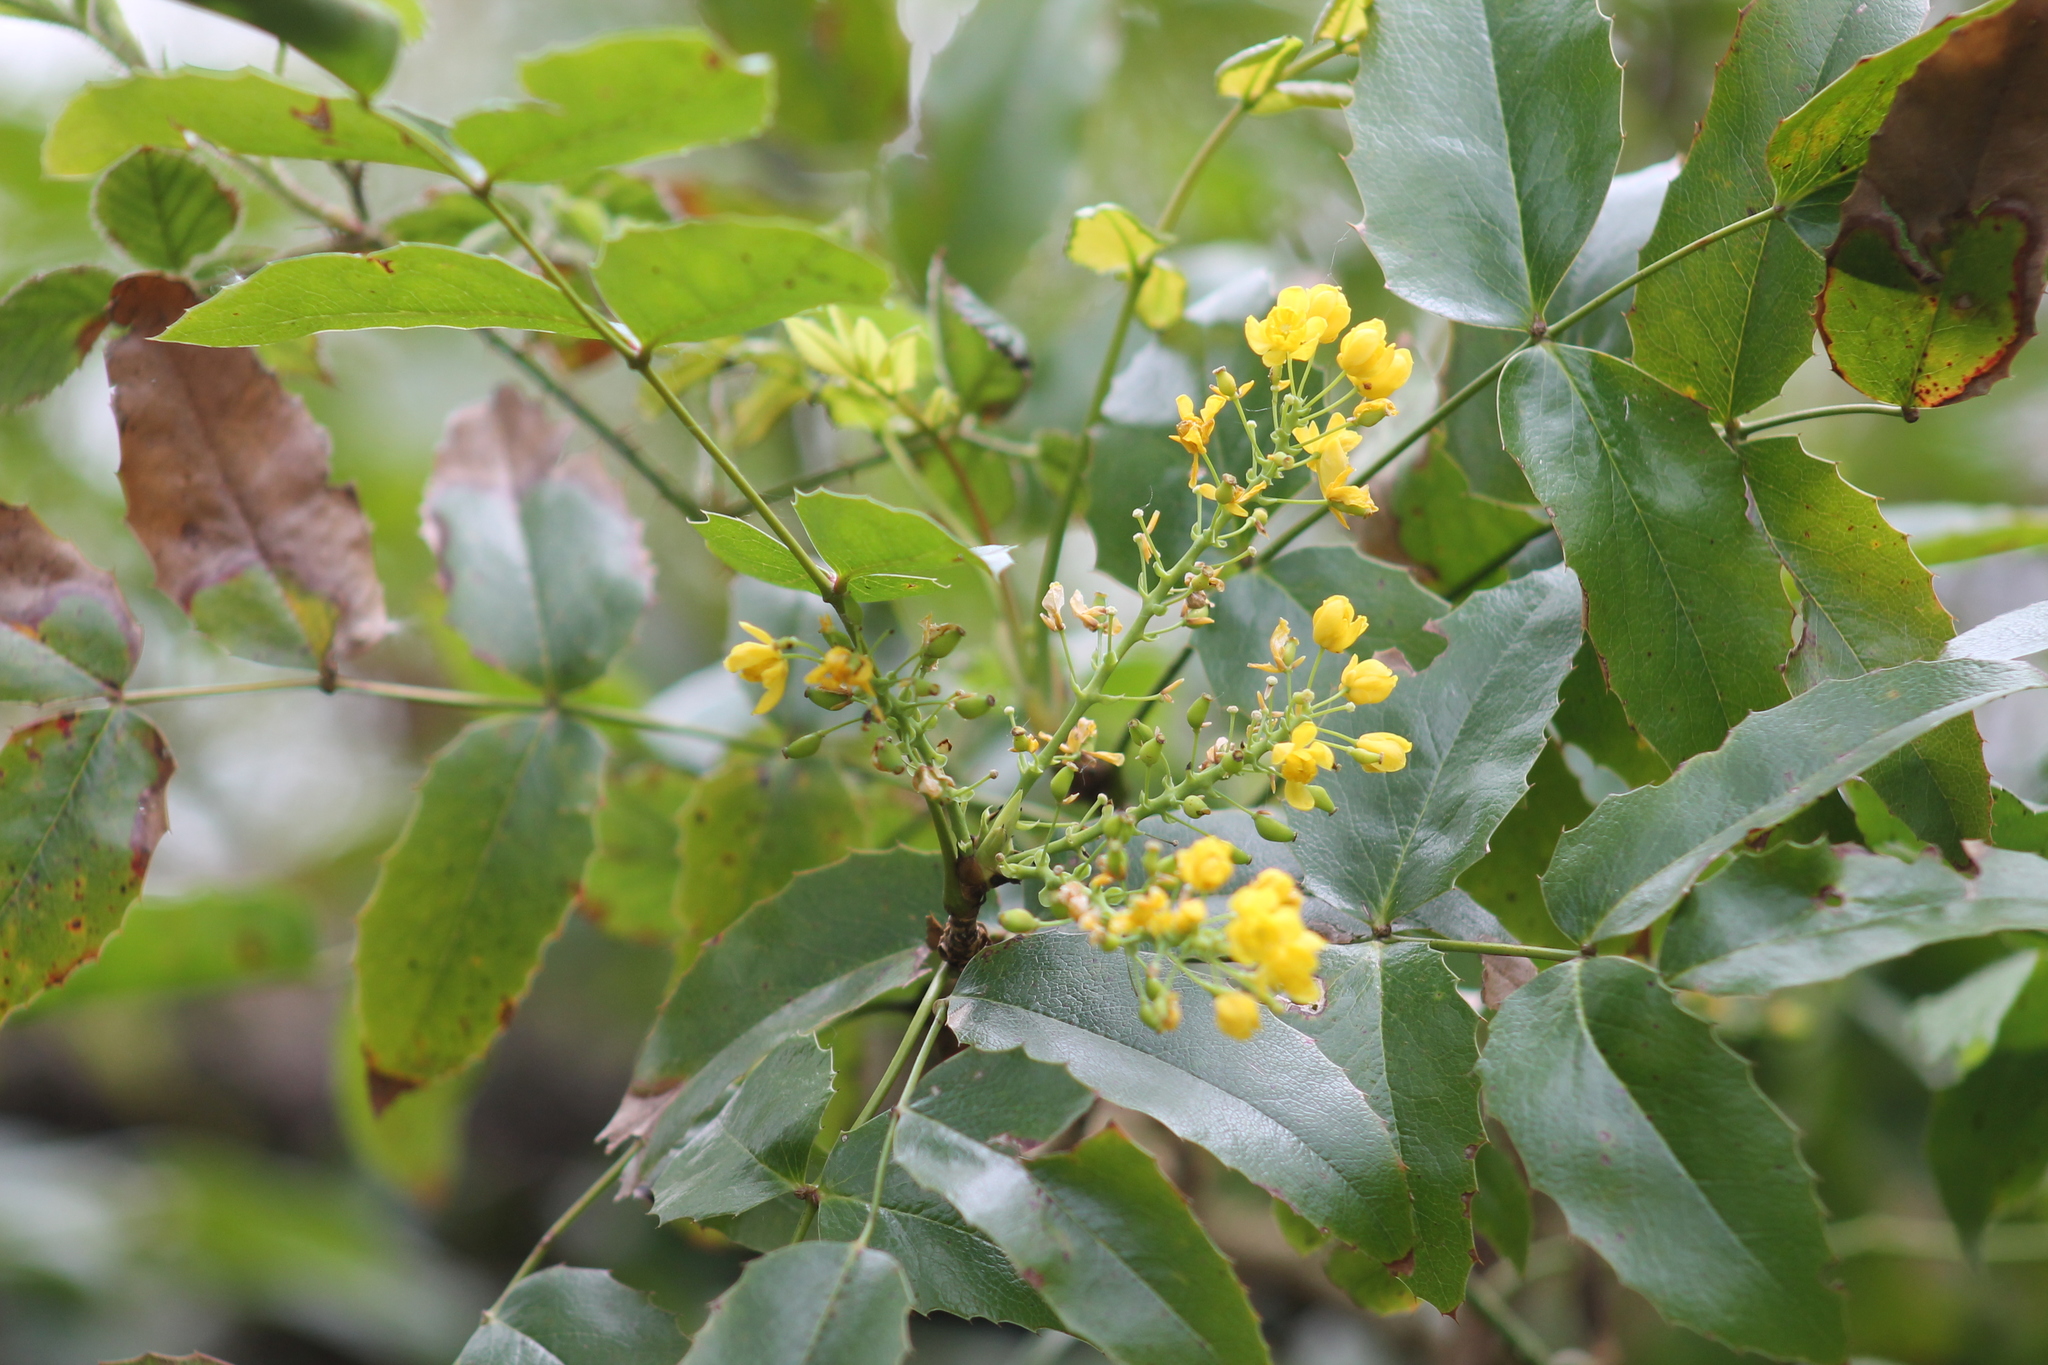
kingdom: Plantae
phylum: Tracheophyta
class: Magnoliopsida
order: Ranunculales
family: Berberidaceae
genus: Mahonia
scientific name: Mahonia aquifolium
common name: Oregon-grape
